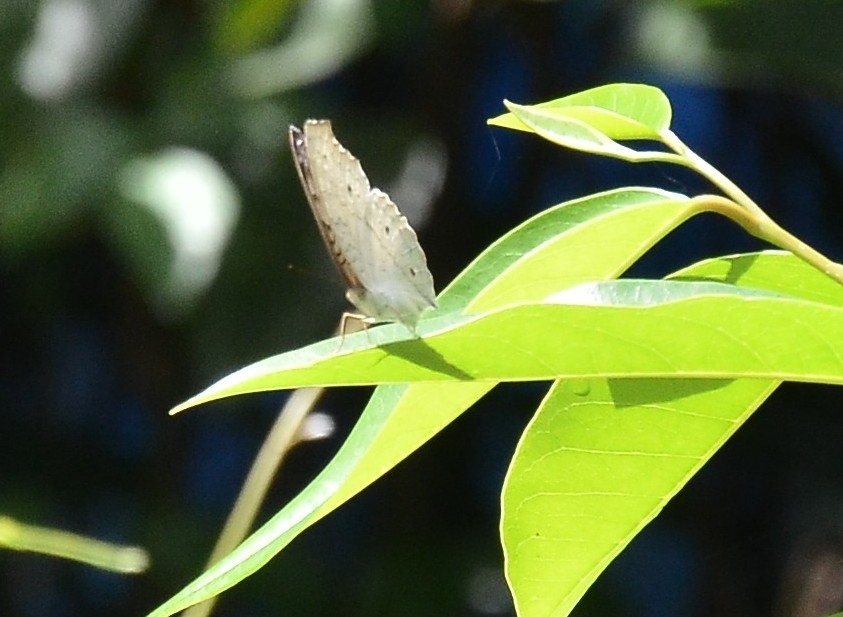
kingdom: Animalia
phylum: Arthropoda
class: Insecta
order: Lepidoptera
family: Nymphalidae
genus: Junonia
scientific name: Junonia atlites
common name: Grey pansy
